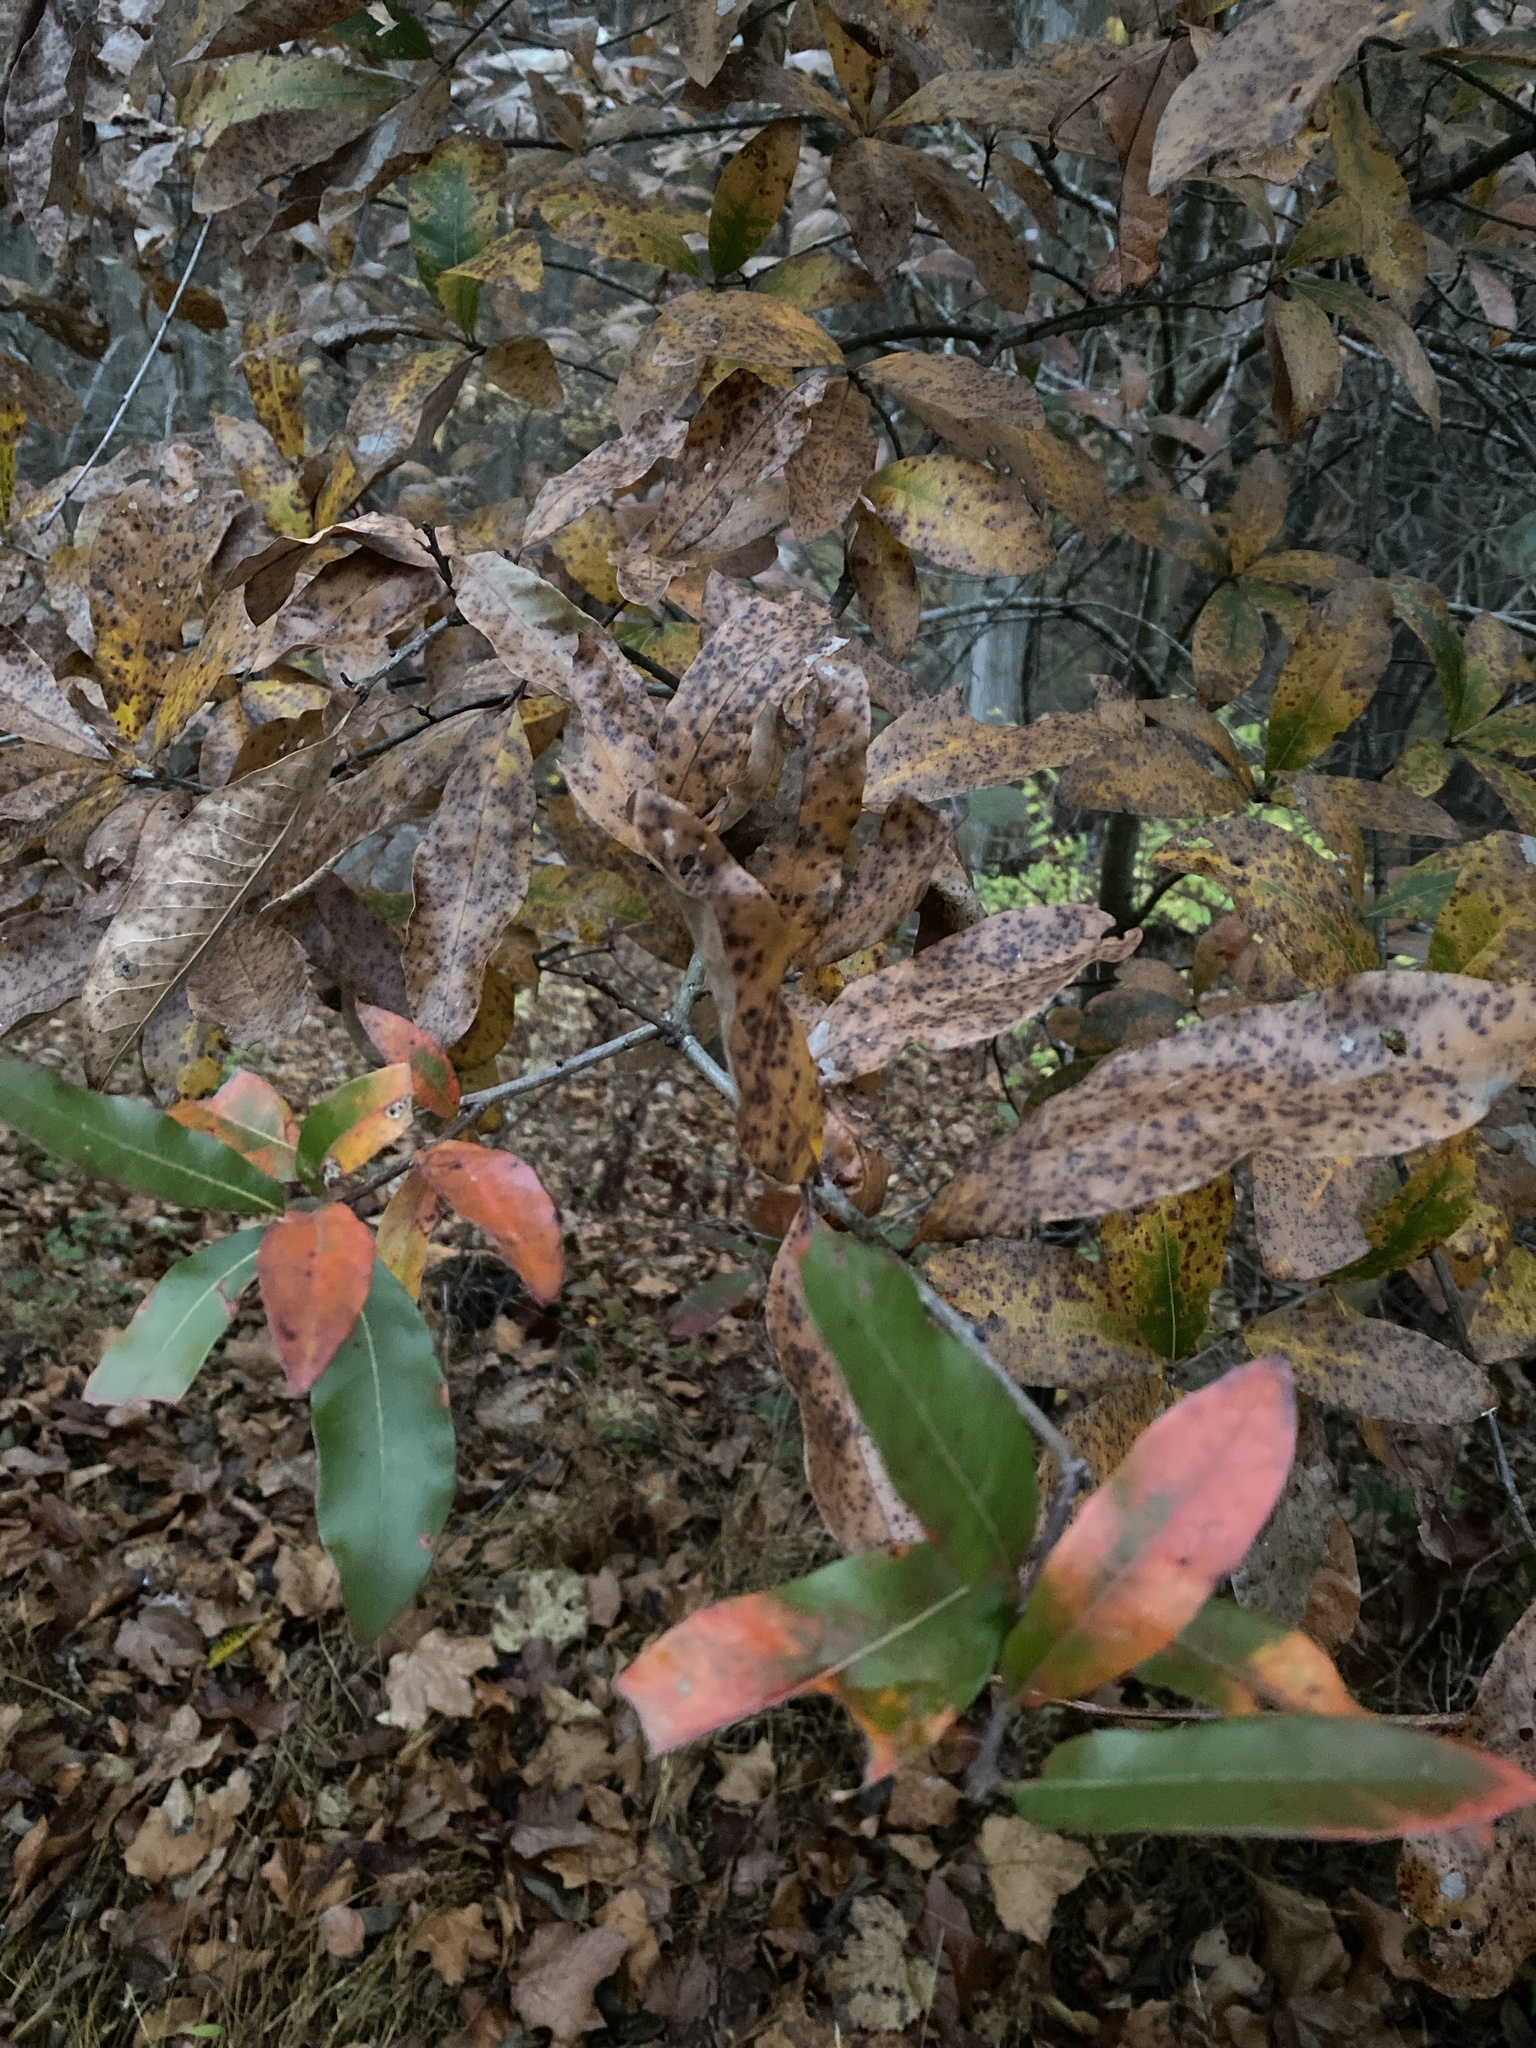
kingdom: Plantae
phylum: Tracheophyta
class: Magnoliopsida
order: Fagales
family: Fagaceae
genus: Quercus
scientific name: Quercus imbricaria
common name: Shingle oak
